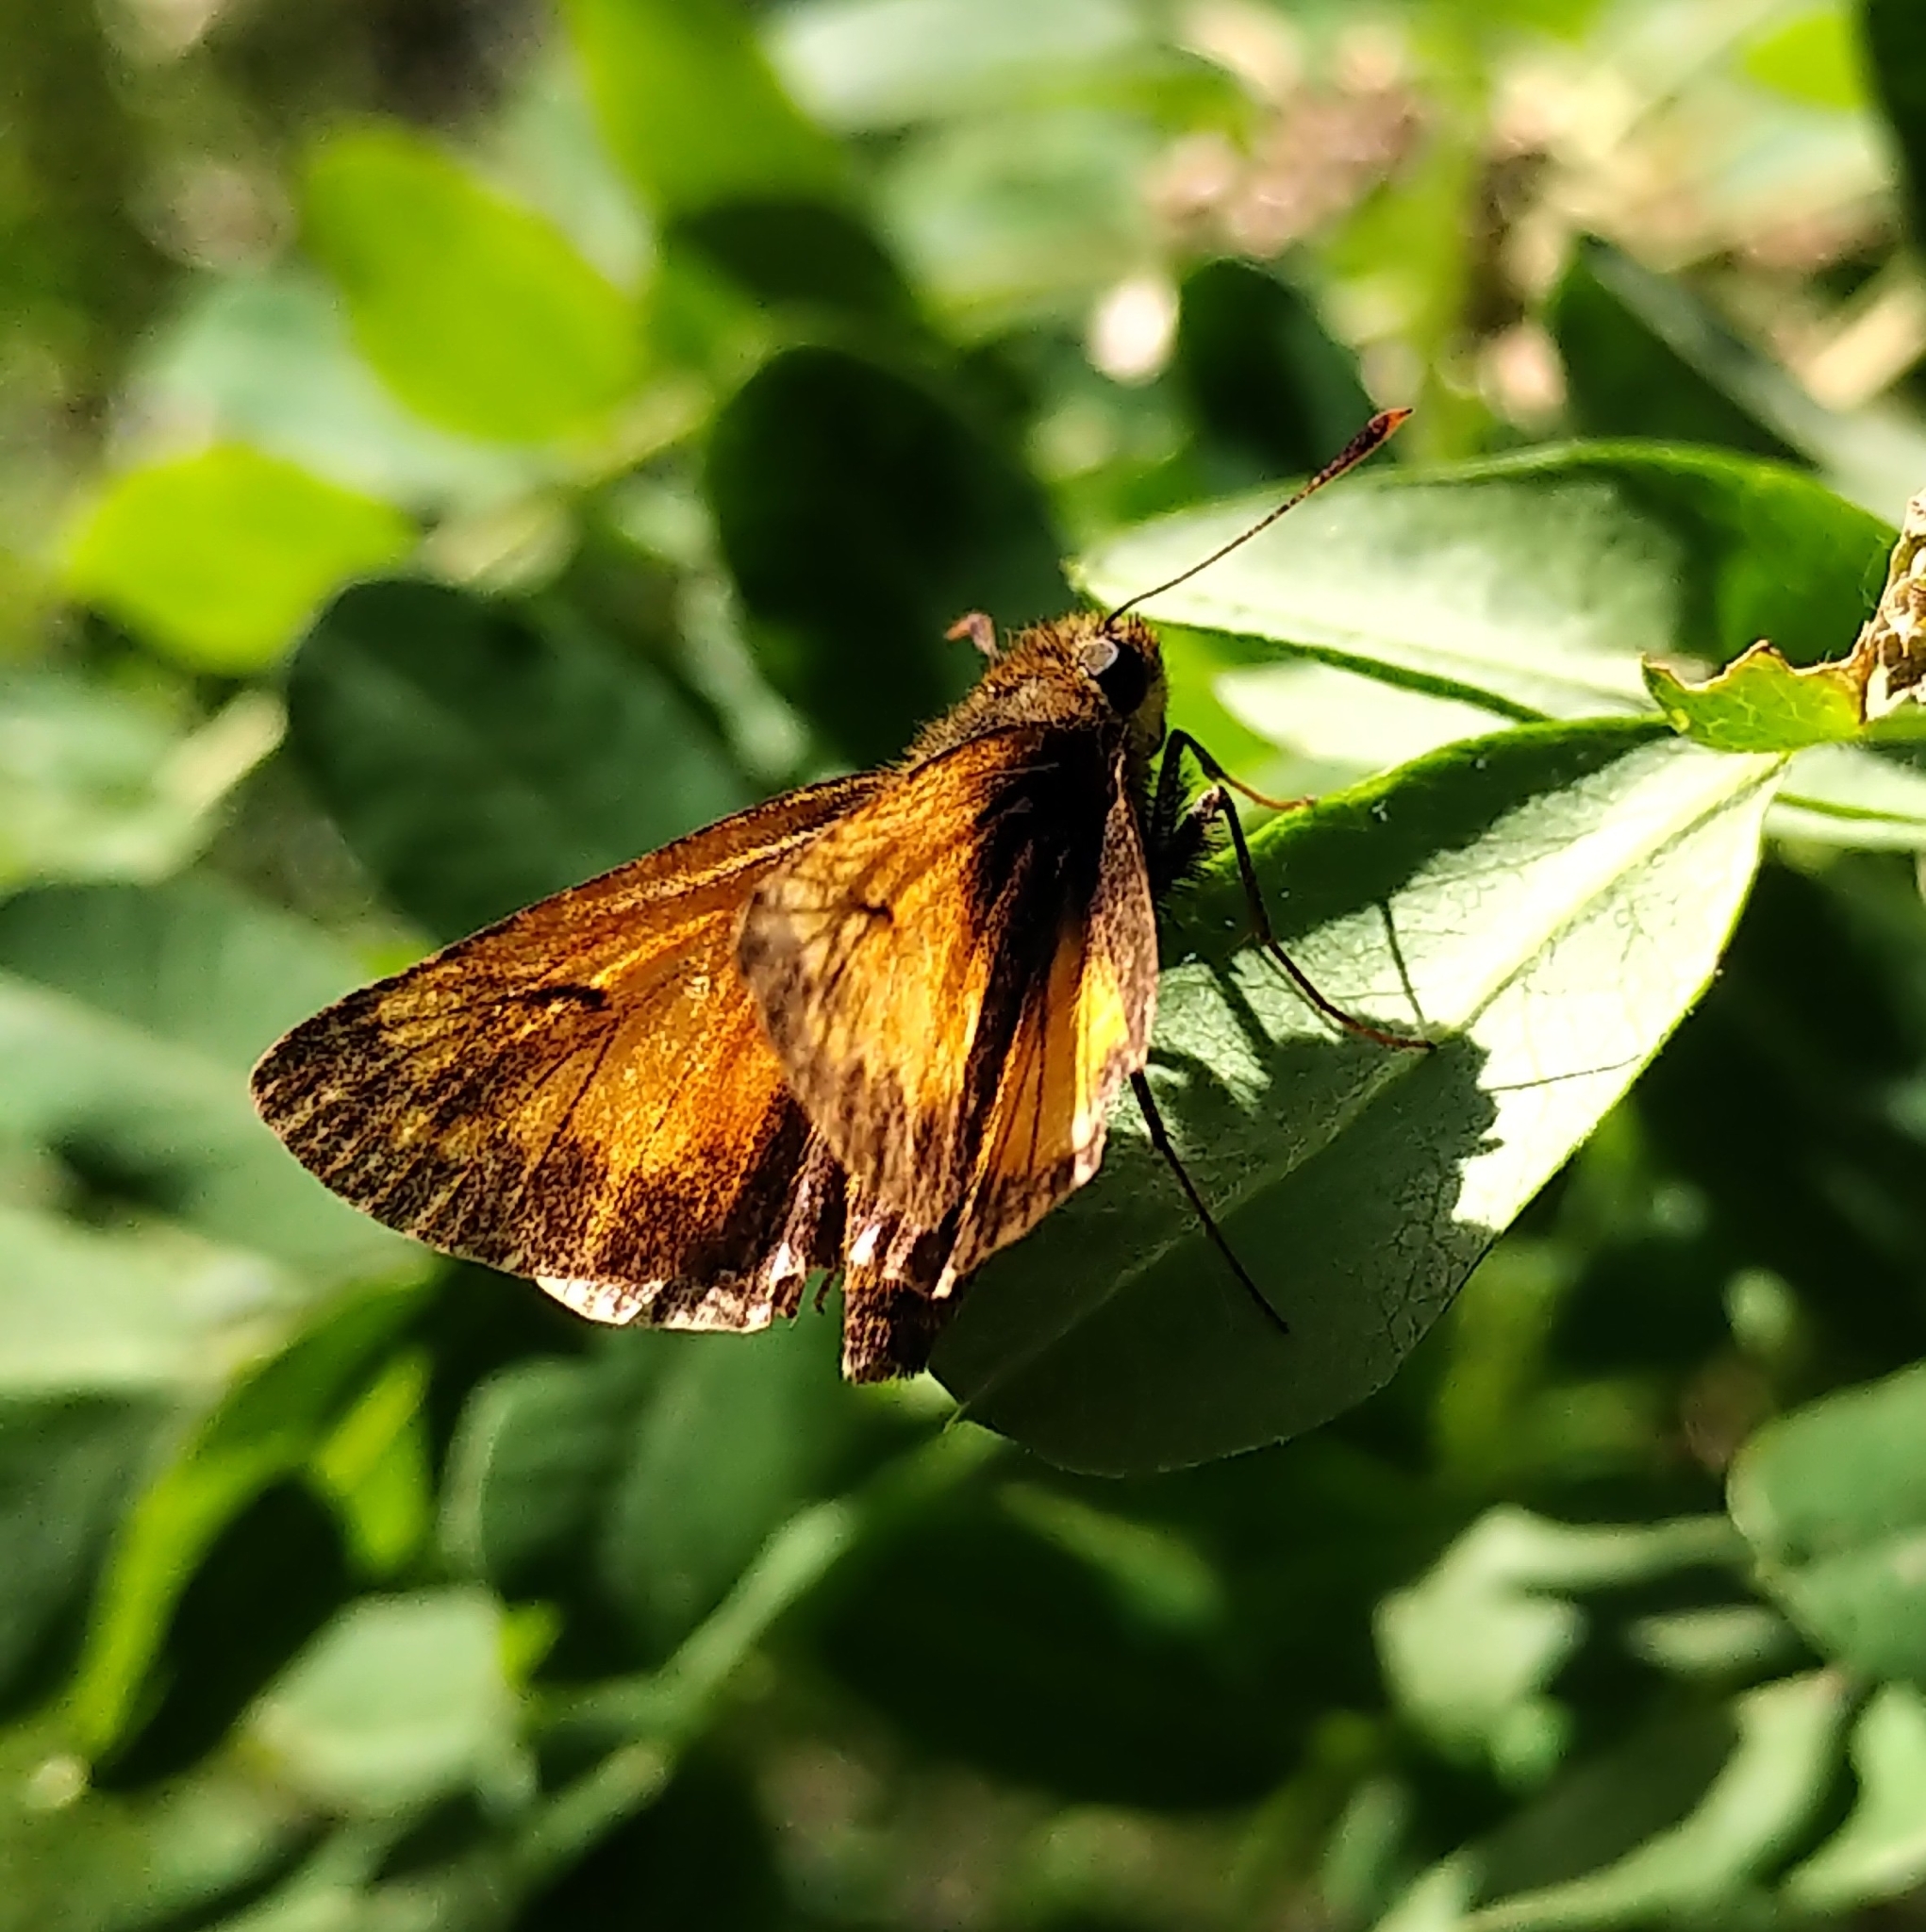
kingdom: Animalia
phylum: Arthropoda
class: Insecta
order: Lepidoptera
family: Hesperiidae
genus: Lon
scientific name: Lon hobomok
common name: Hobomok skipper
